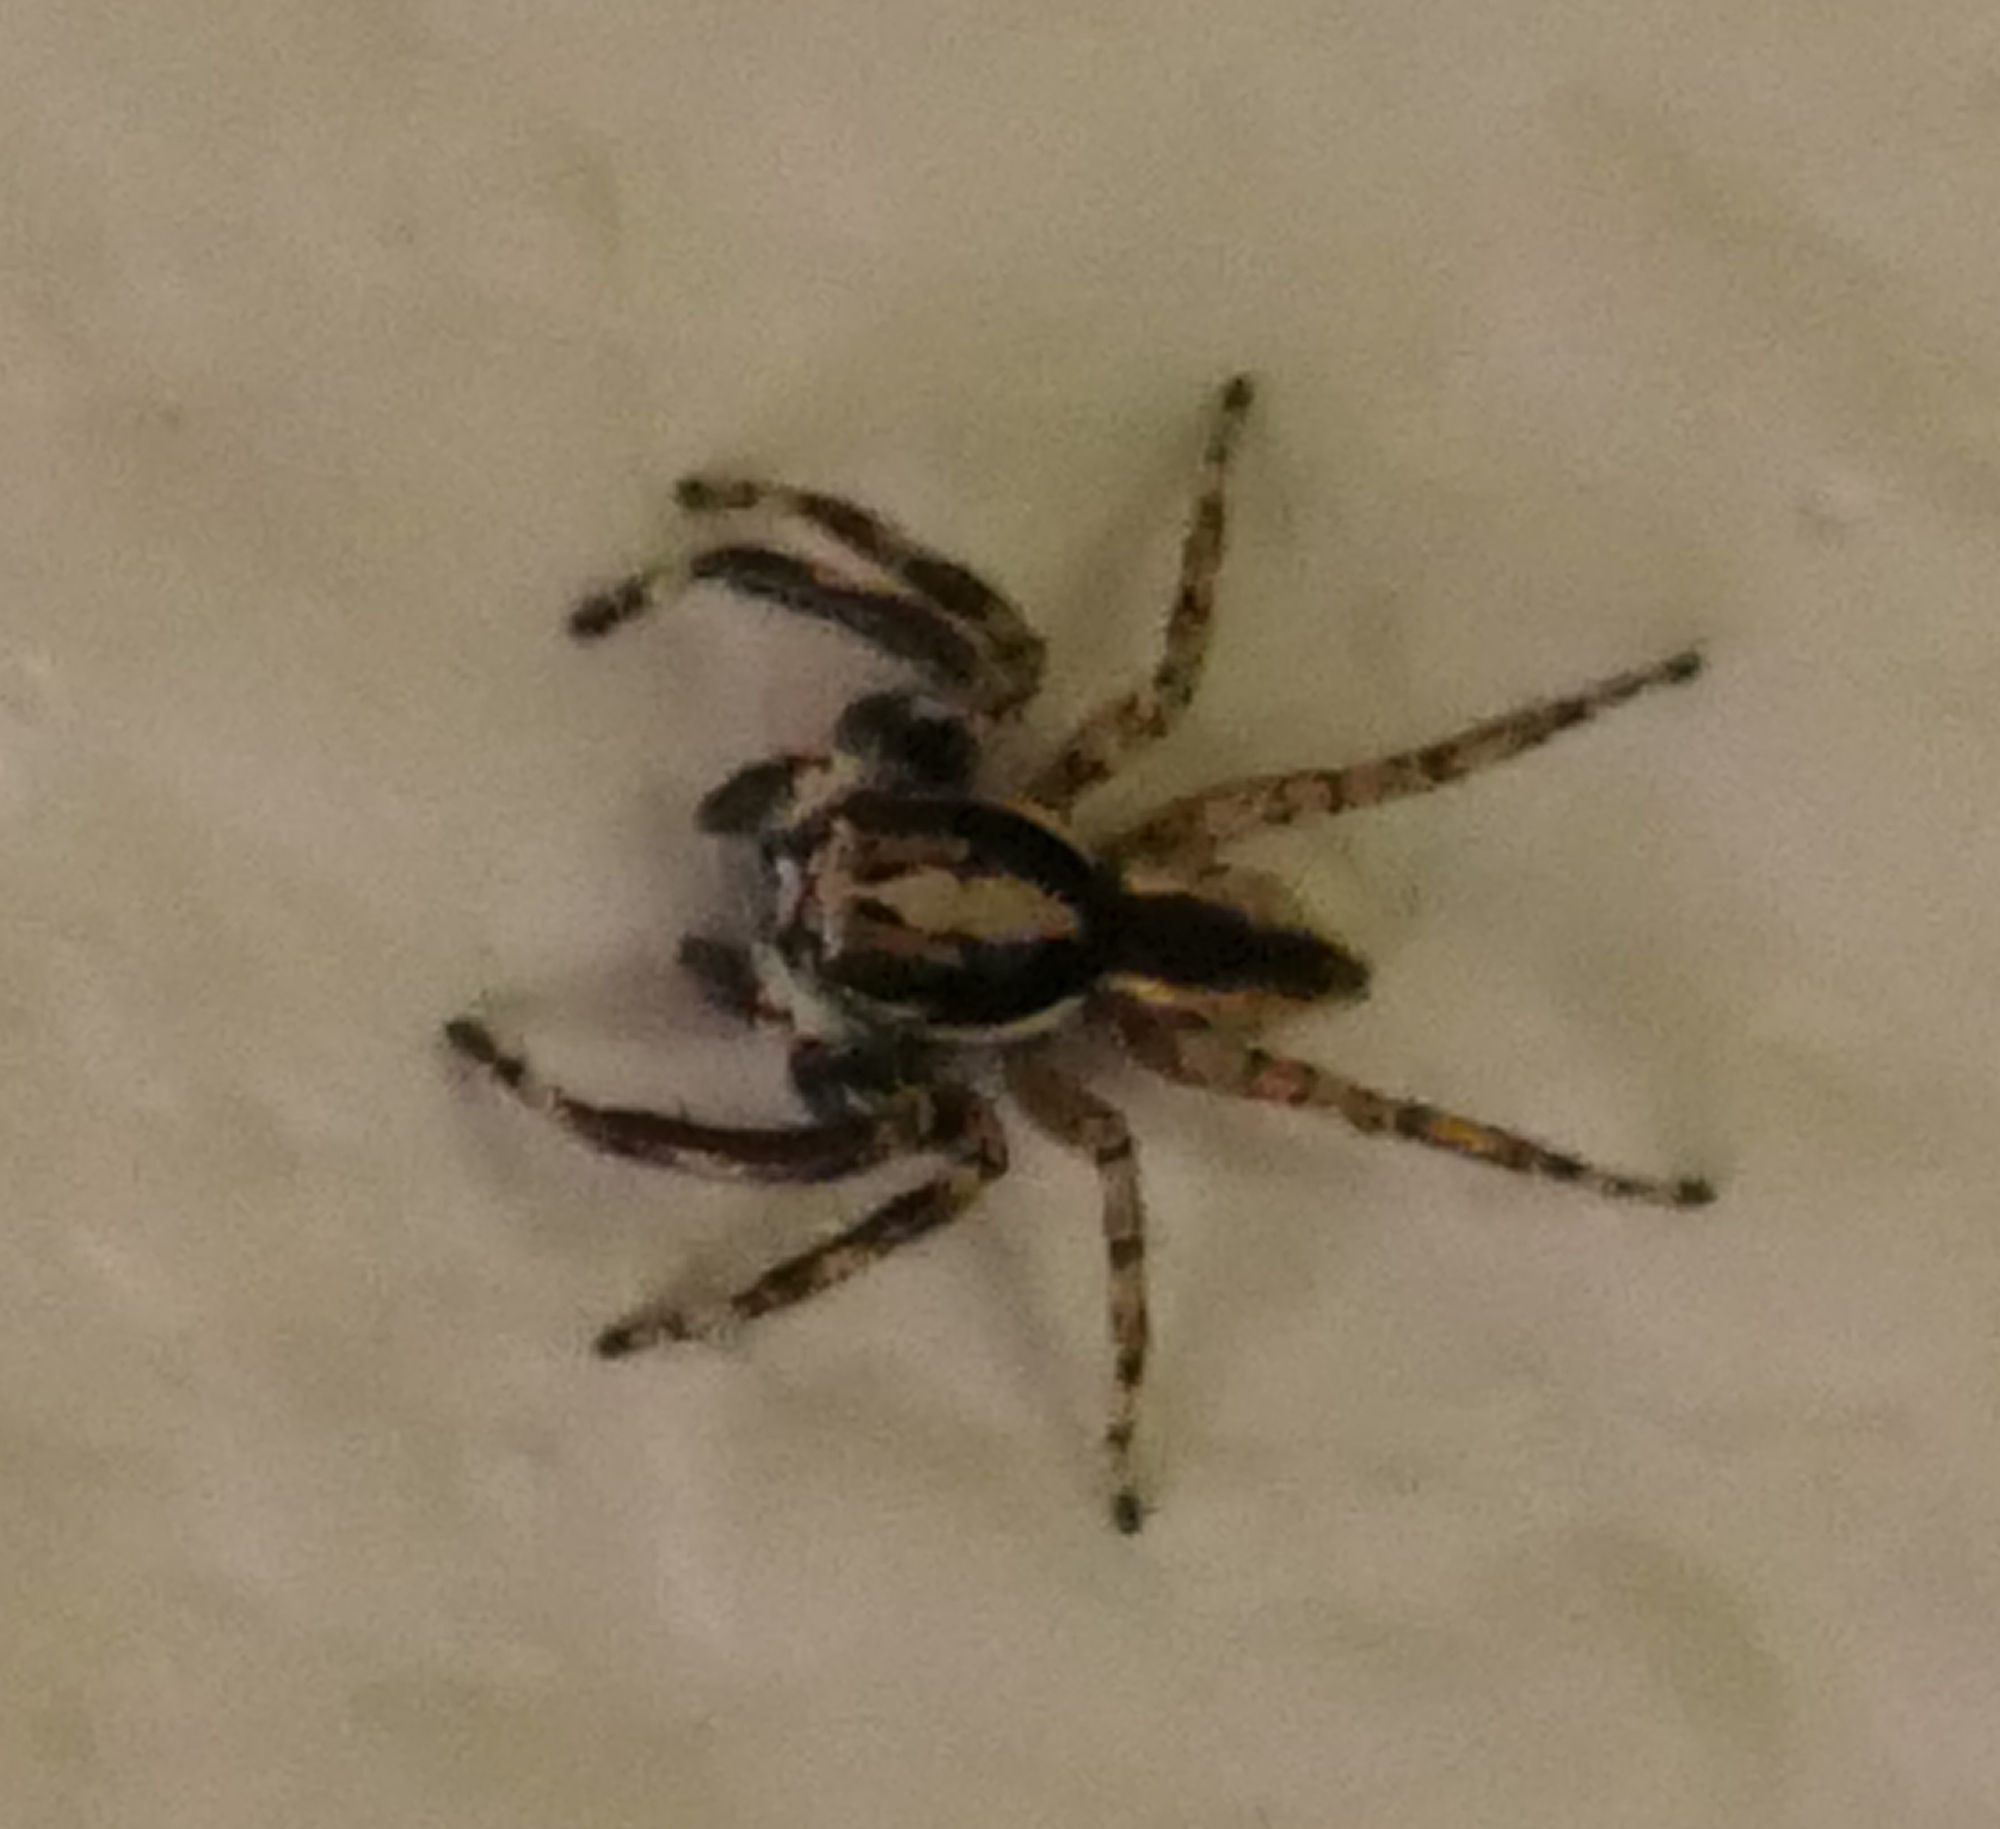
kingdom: Animalia
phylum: Arthropoda
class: Arachnida
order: Araneae
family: Salticidae
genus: Menemerus
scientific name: Menemerus bivittatus
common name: Gray wall jumper
